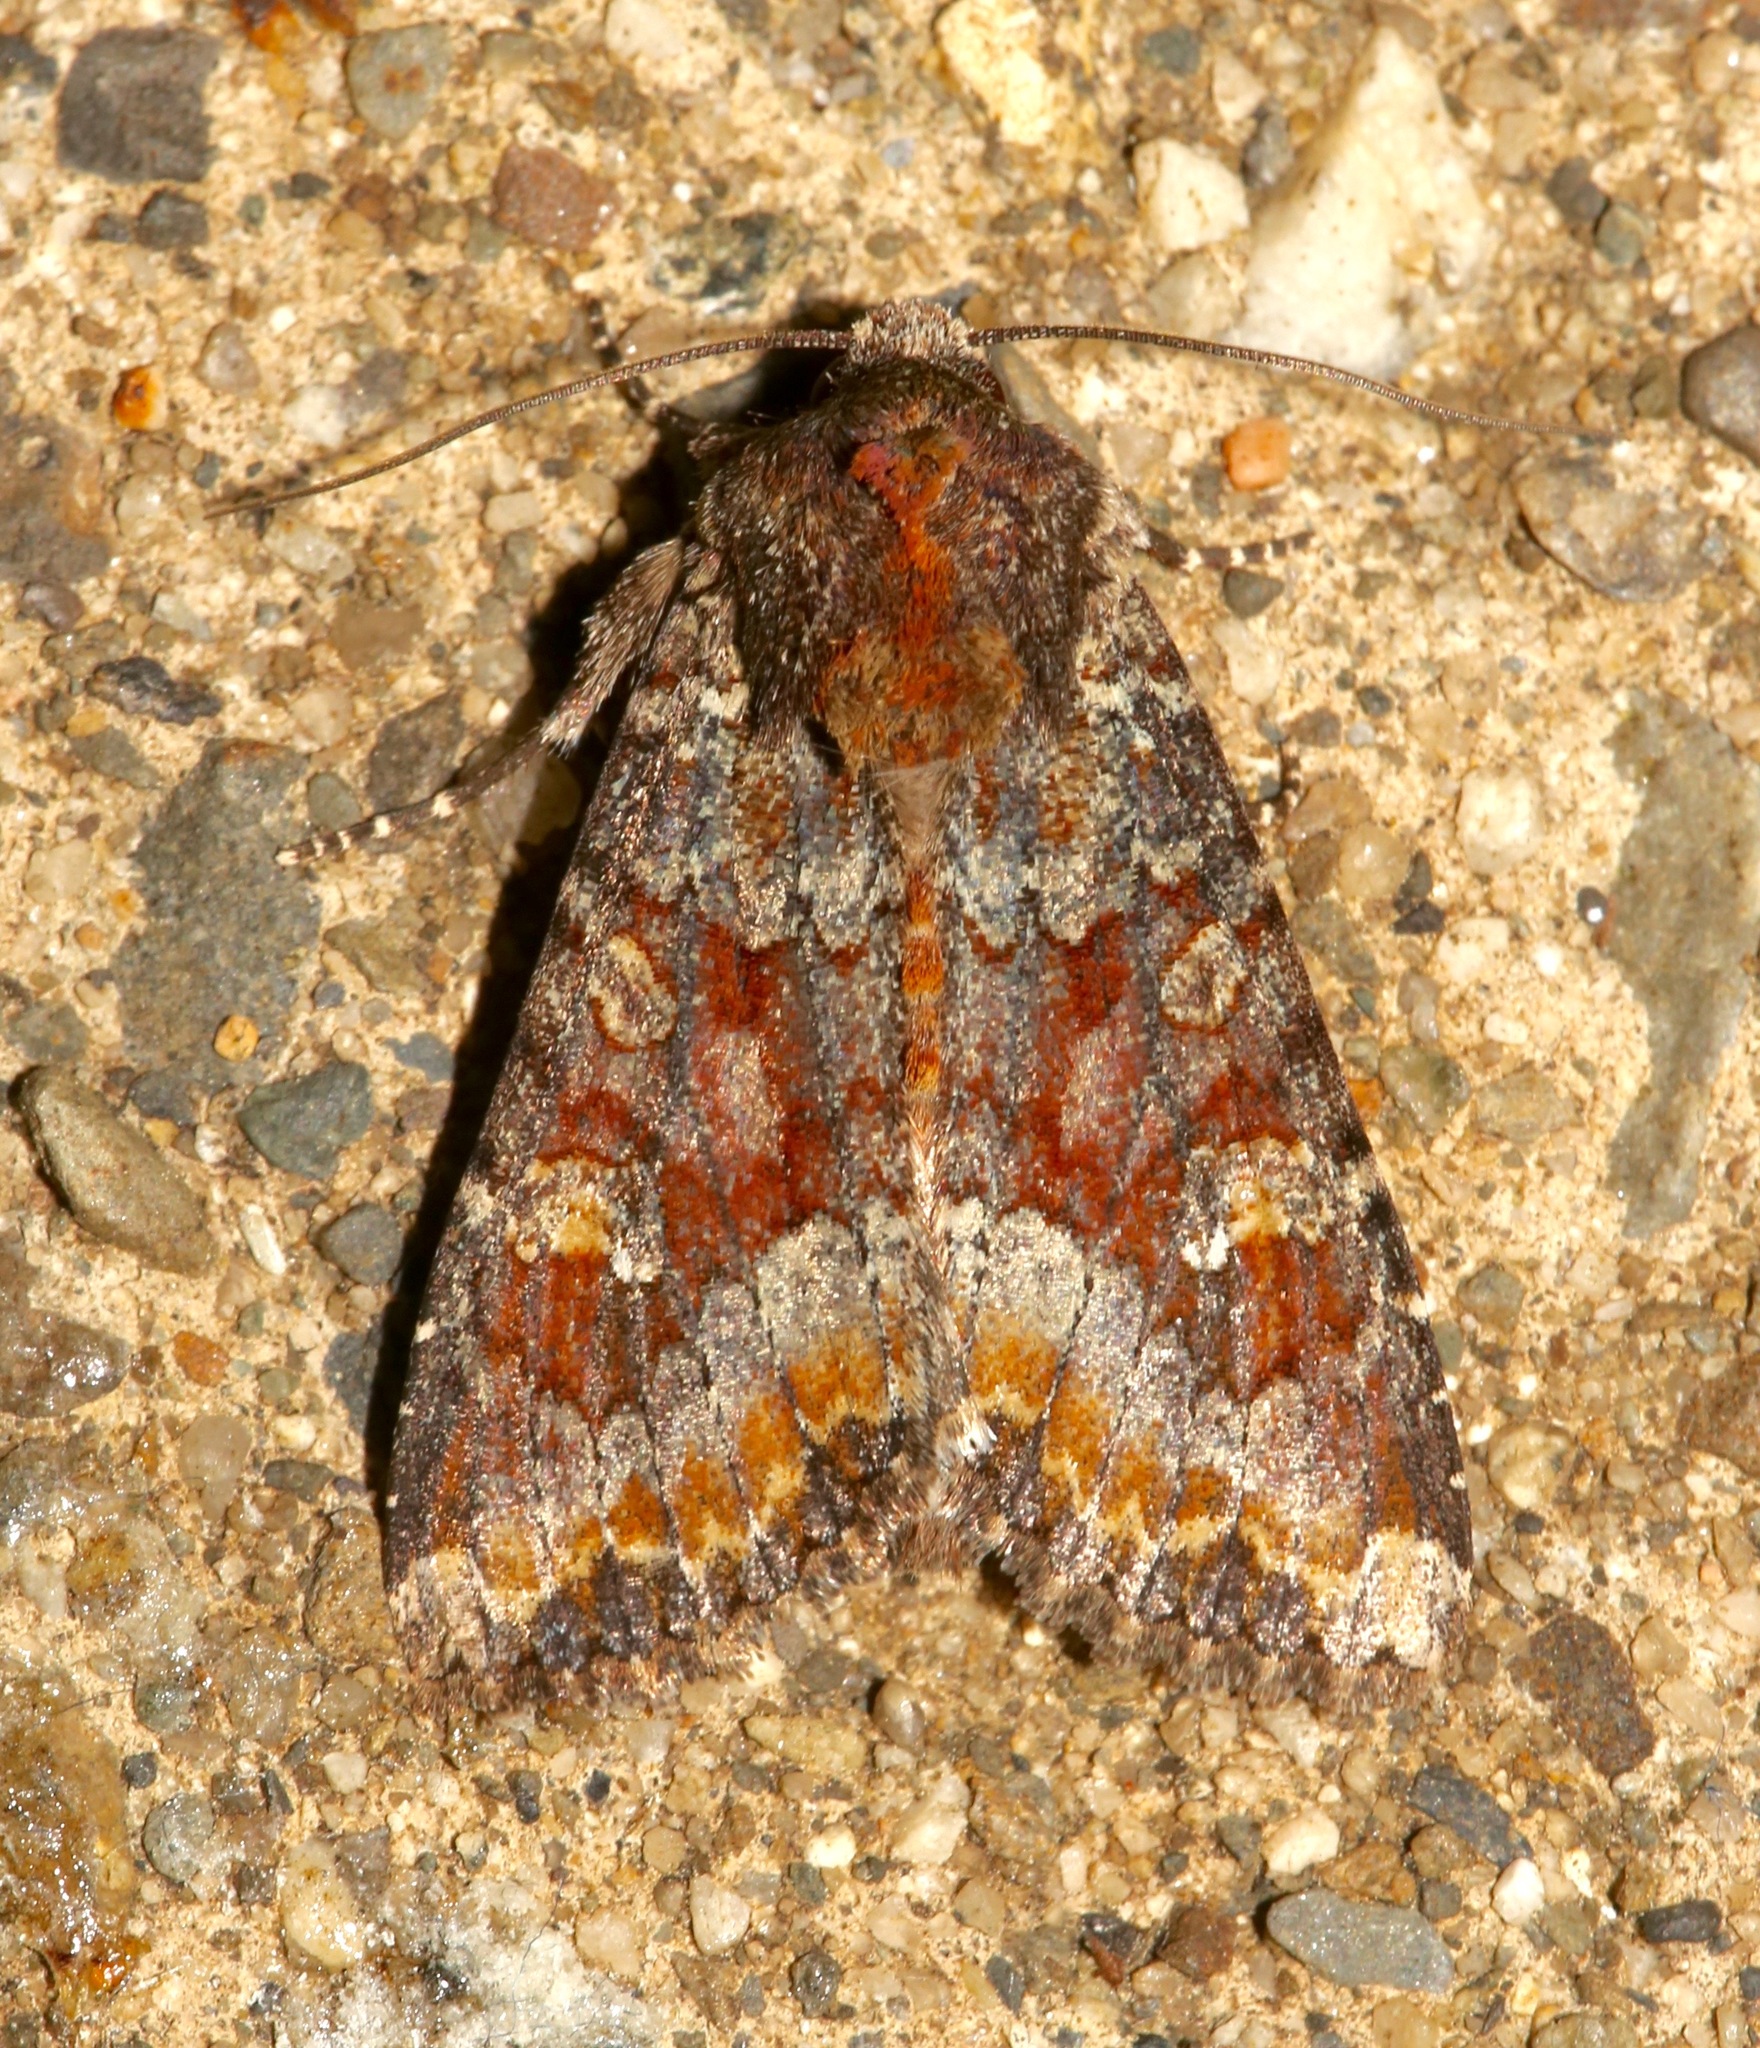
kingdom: Animalia
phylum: Arthropoda
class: Insecta
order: Lepidoptera
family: Noctuidae
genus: Apamea
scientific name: Apamea amputatrix
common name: Yellow-headed cutworm moth
